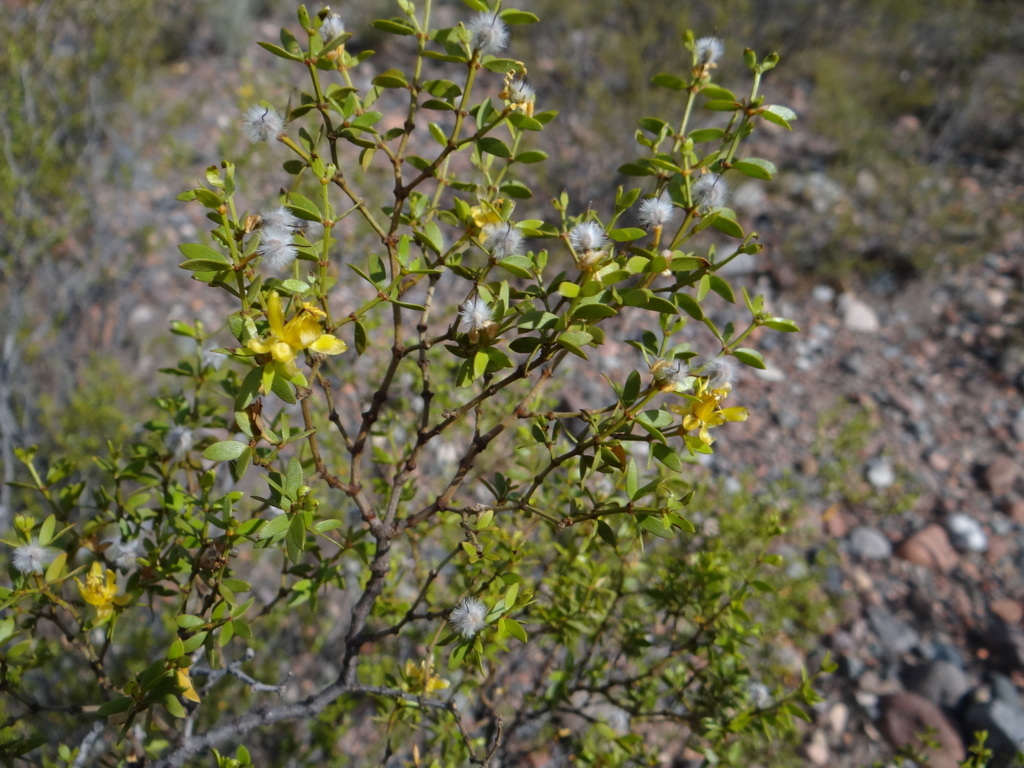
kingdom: Plantae
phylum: Tracheophyta
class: Magnoliopsida
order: Zygophyllales
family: Zygophyllaceae
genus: Larrea
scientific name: Larrea divaricata
